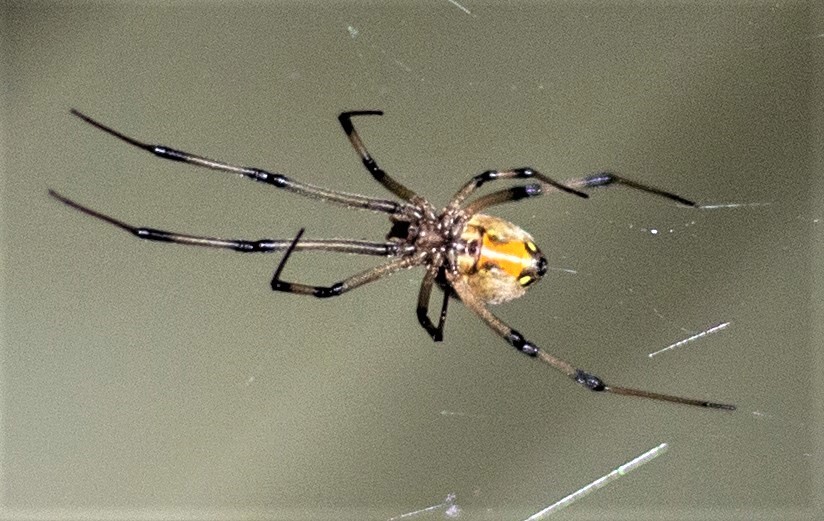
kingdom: Animalia
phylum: Arthropoda
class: Arachnida
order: Araneae
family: Theridiidae
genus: Latrodectus
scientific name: Latrodectus geometricus
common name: Brown widow spider
